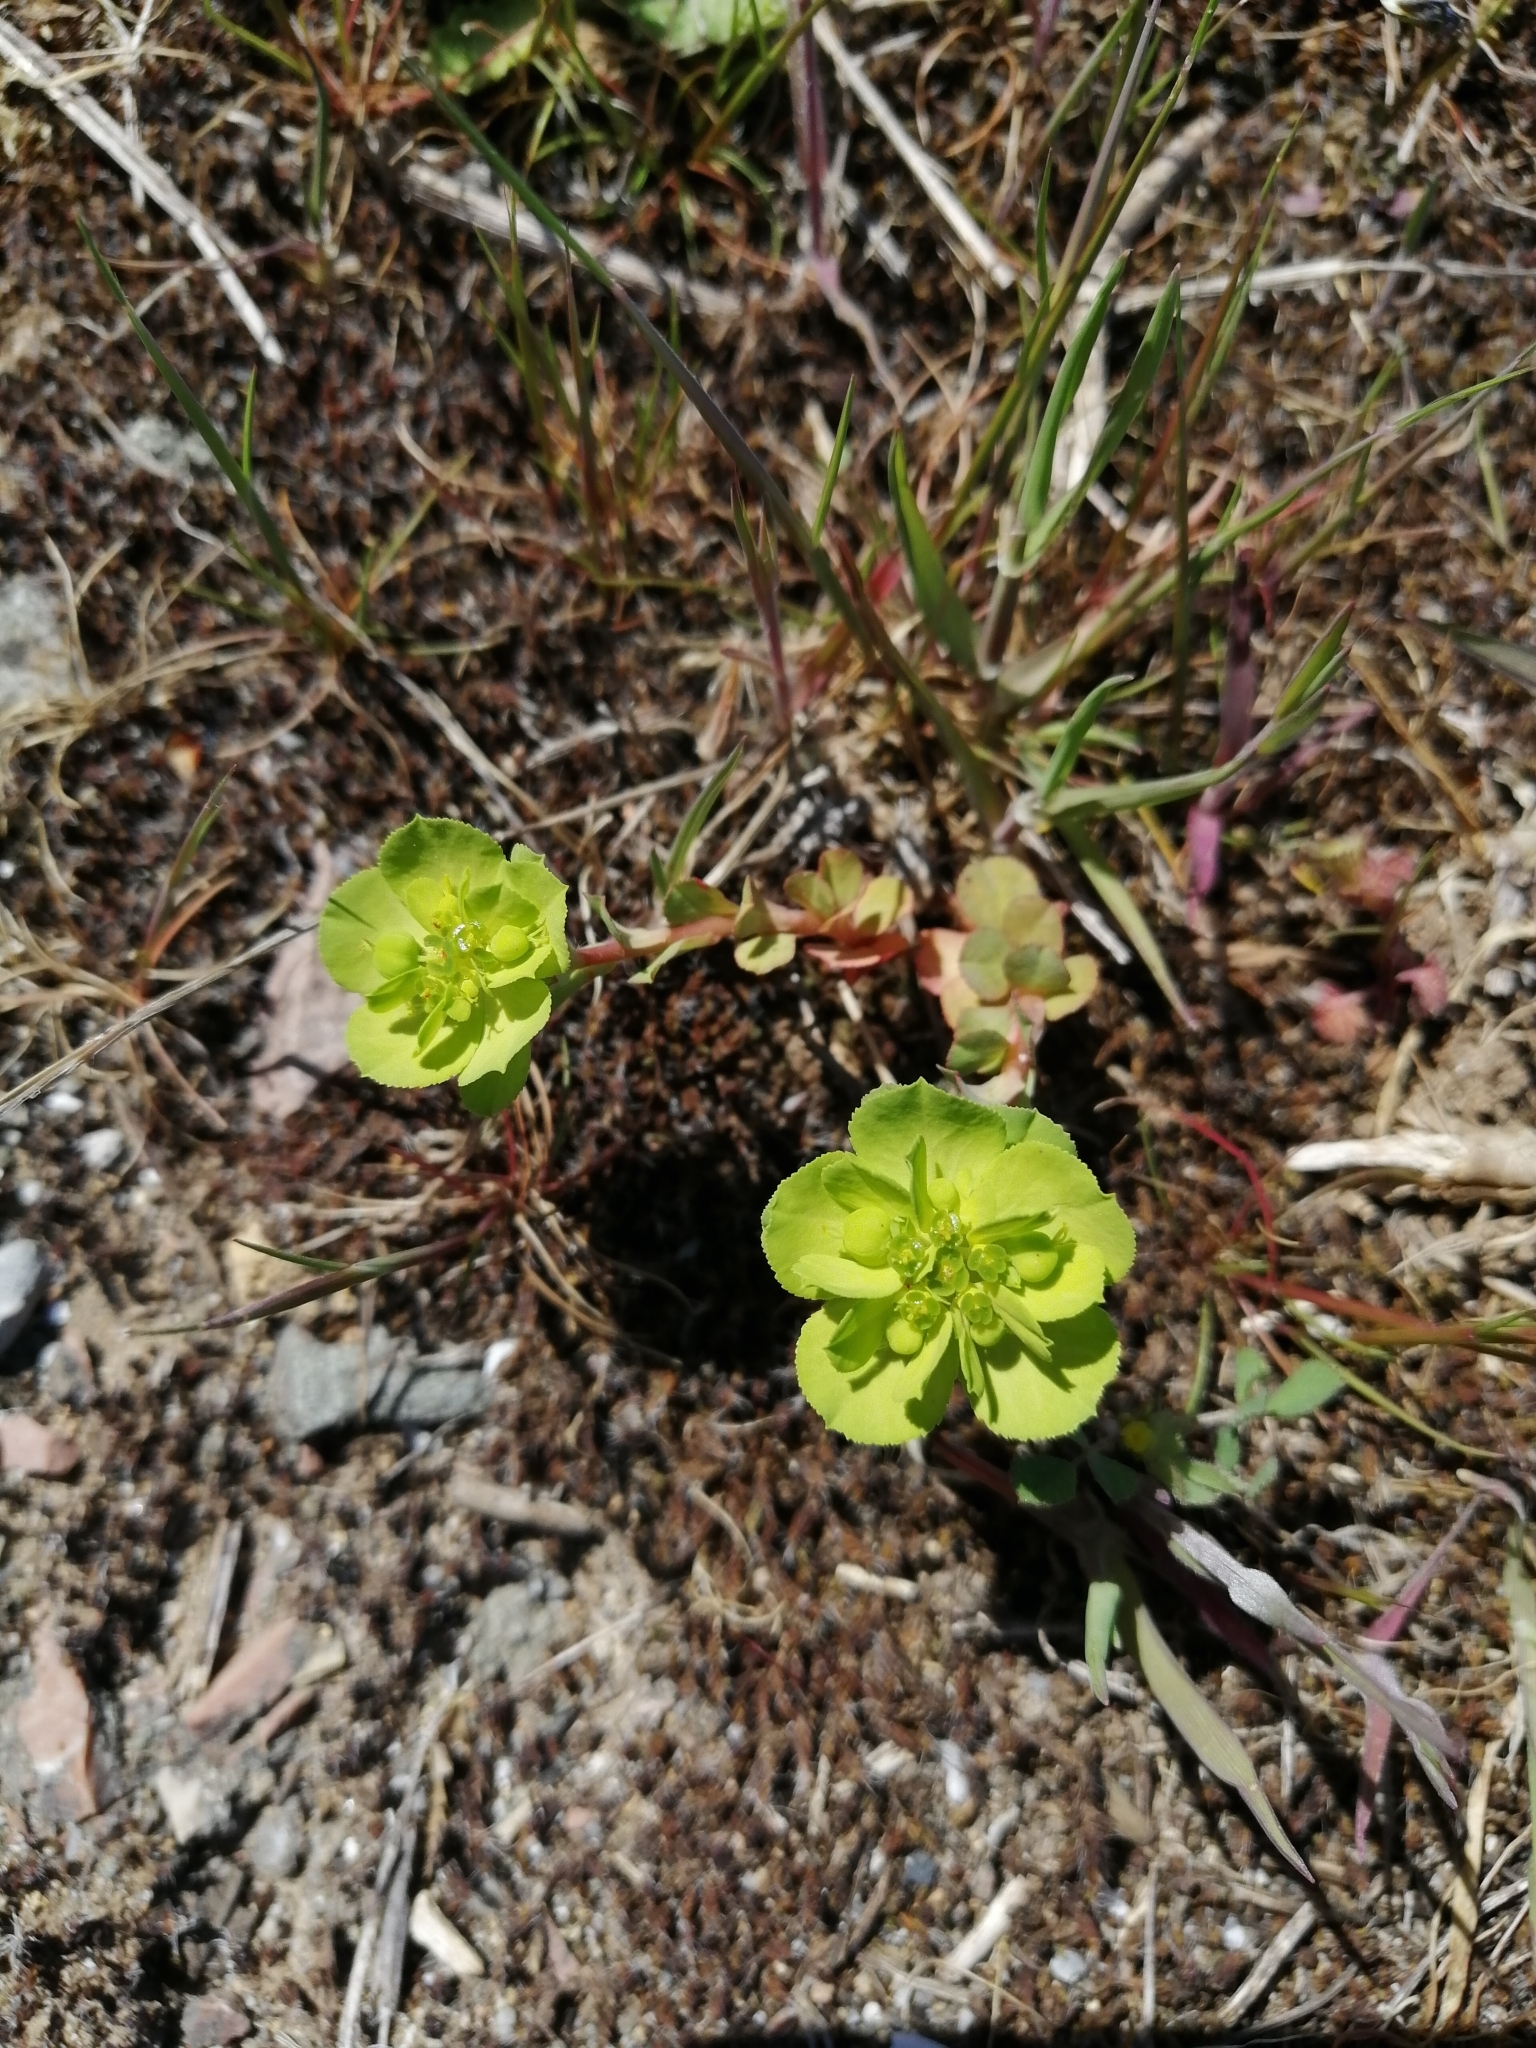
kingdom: Plantae
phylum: Tracheophyta
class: Magnoliopsida
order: Malpighiales
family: Euphorbiaceae
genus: Euphorbia
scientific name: Euphorbia helioscopia
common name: Sun spurge
